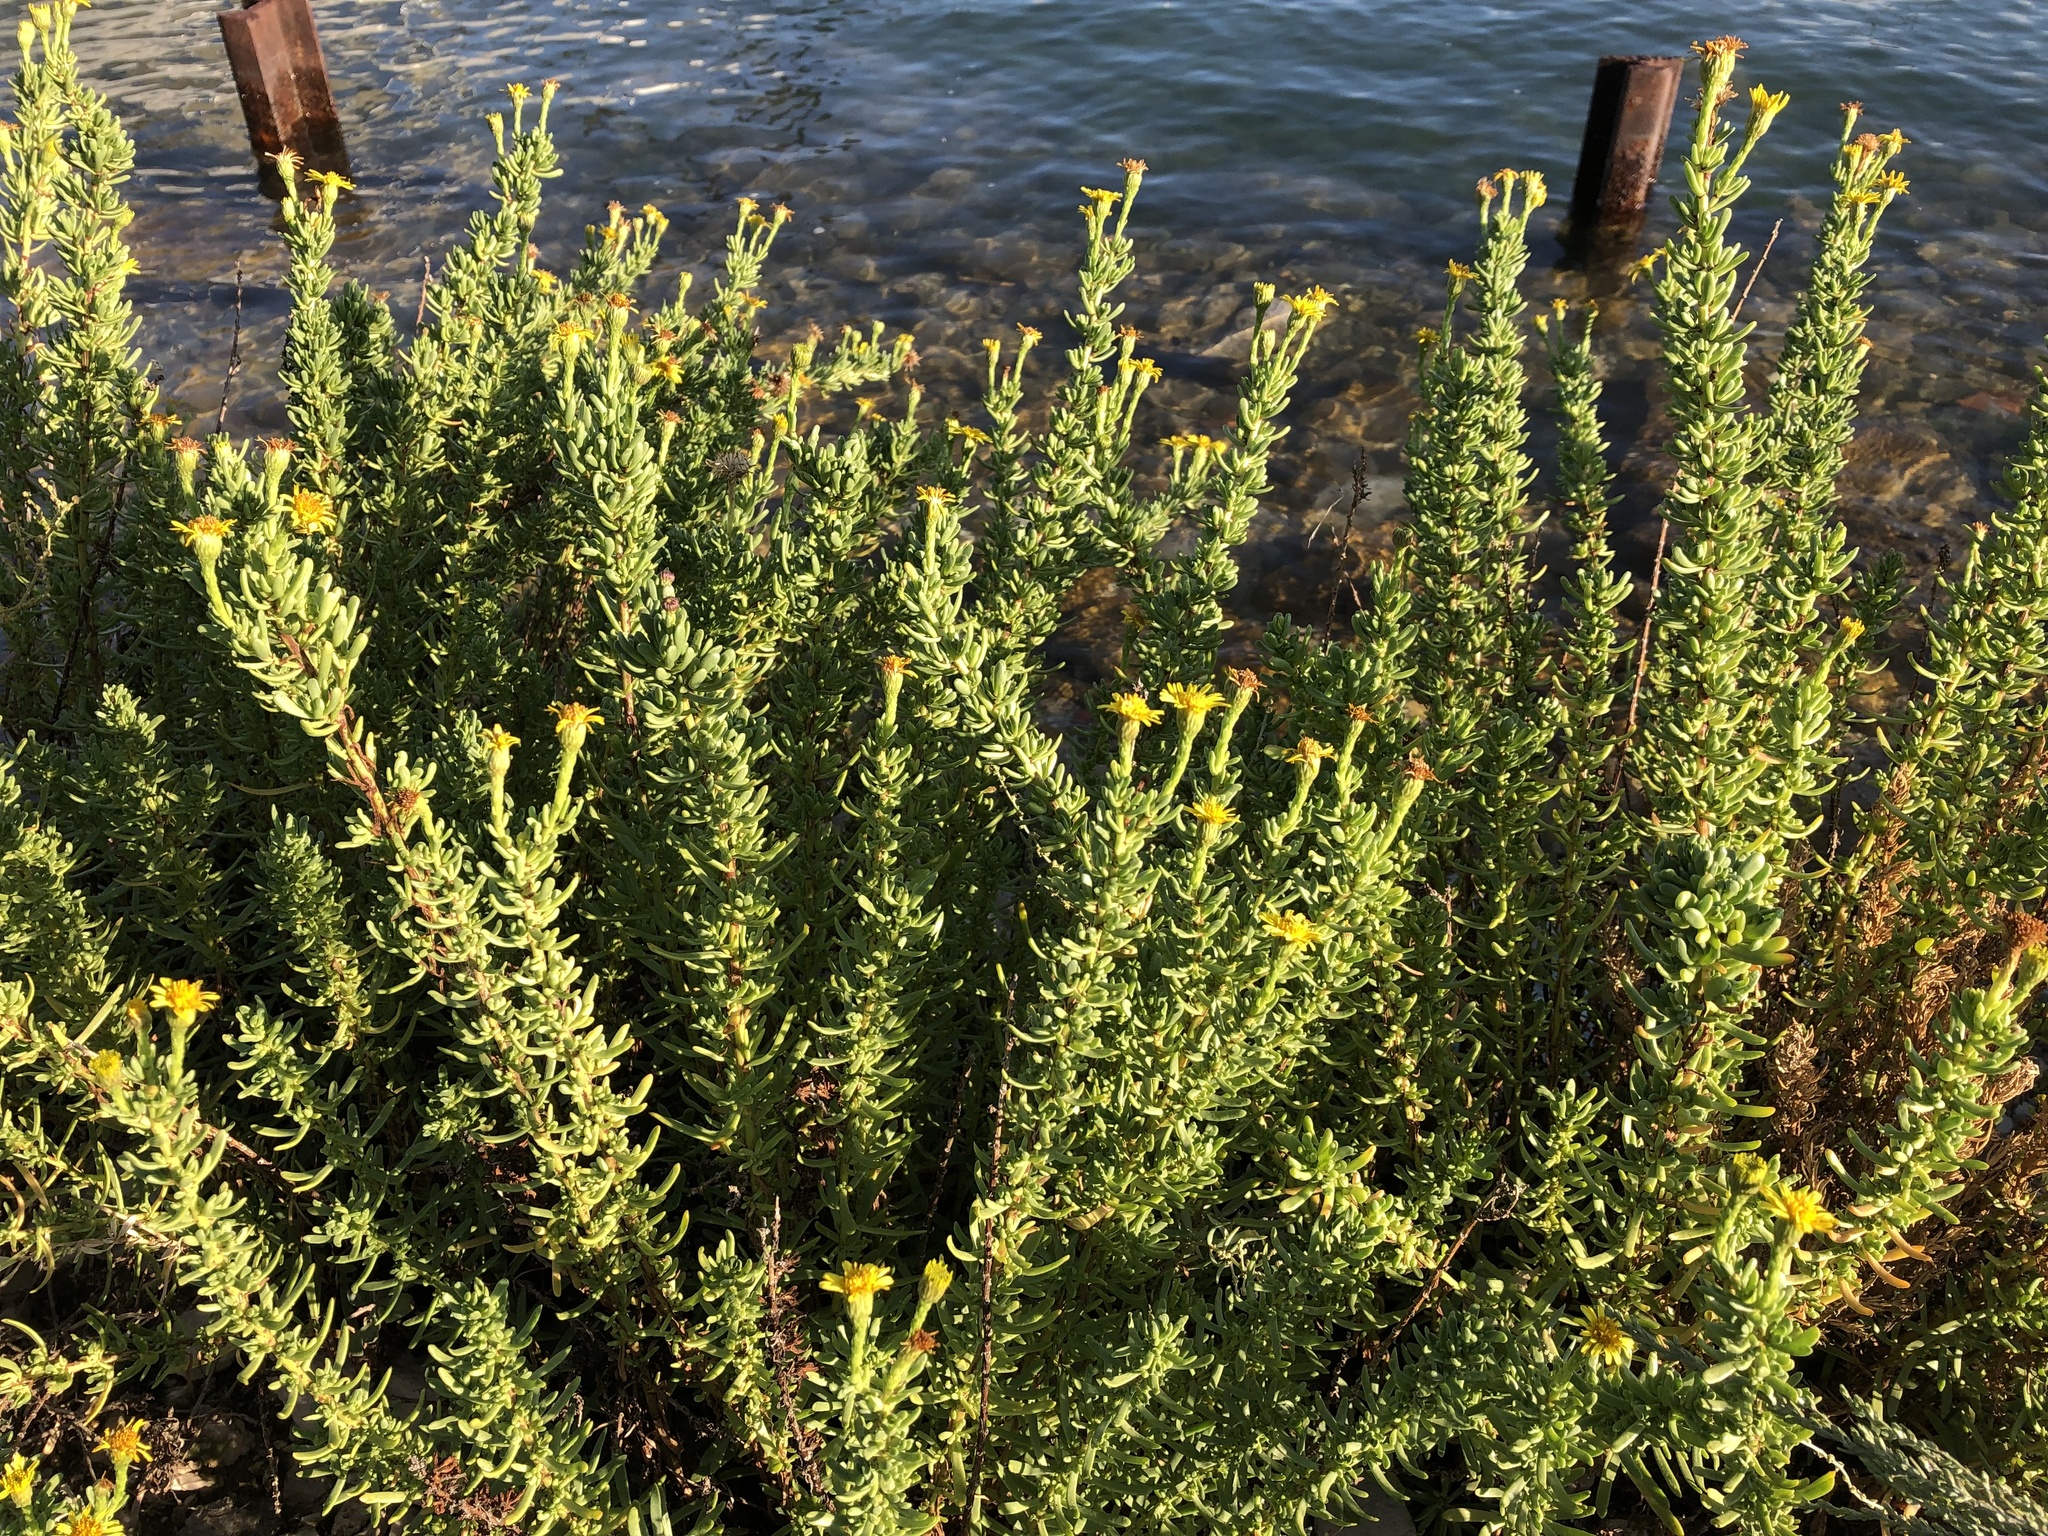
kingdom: Plantae
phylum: Tracheophyta
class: Magnoliopsida
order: Asterales
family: Asteraceae
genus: Limbarda
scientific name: Limbarda crithmoides
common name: Golden samphire
